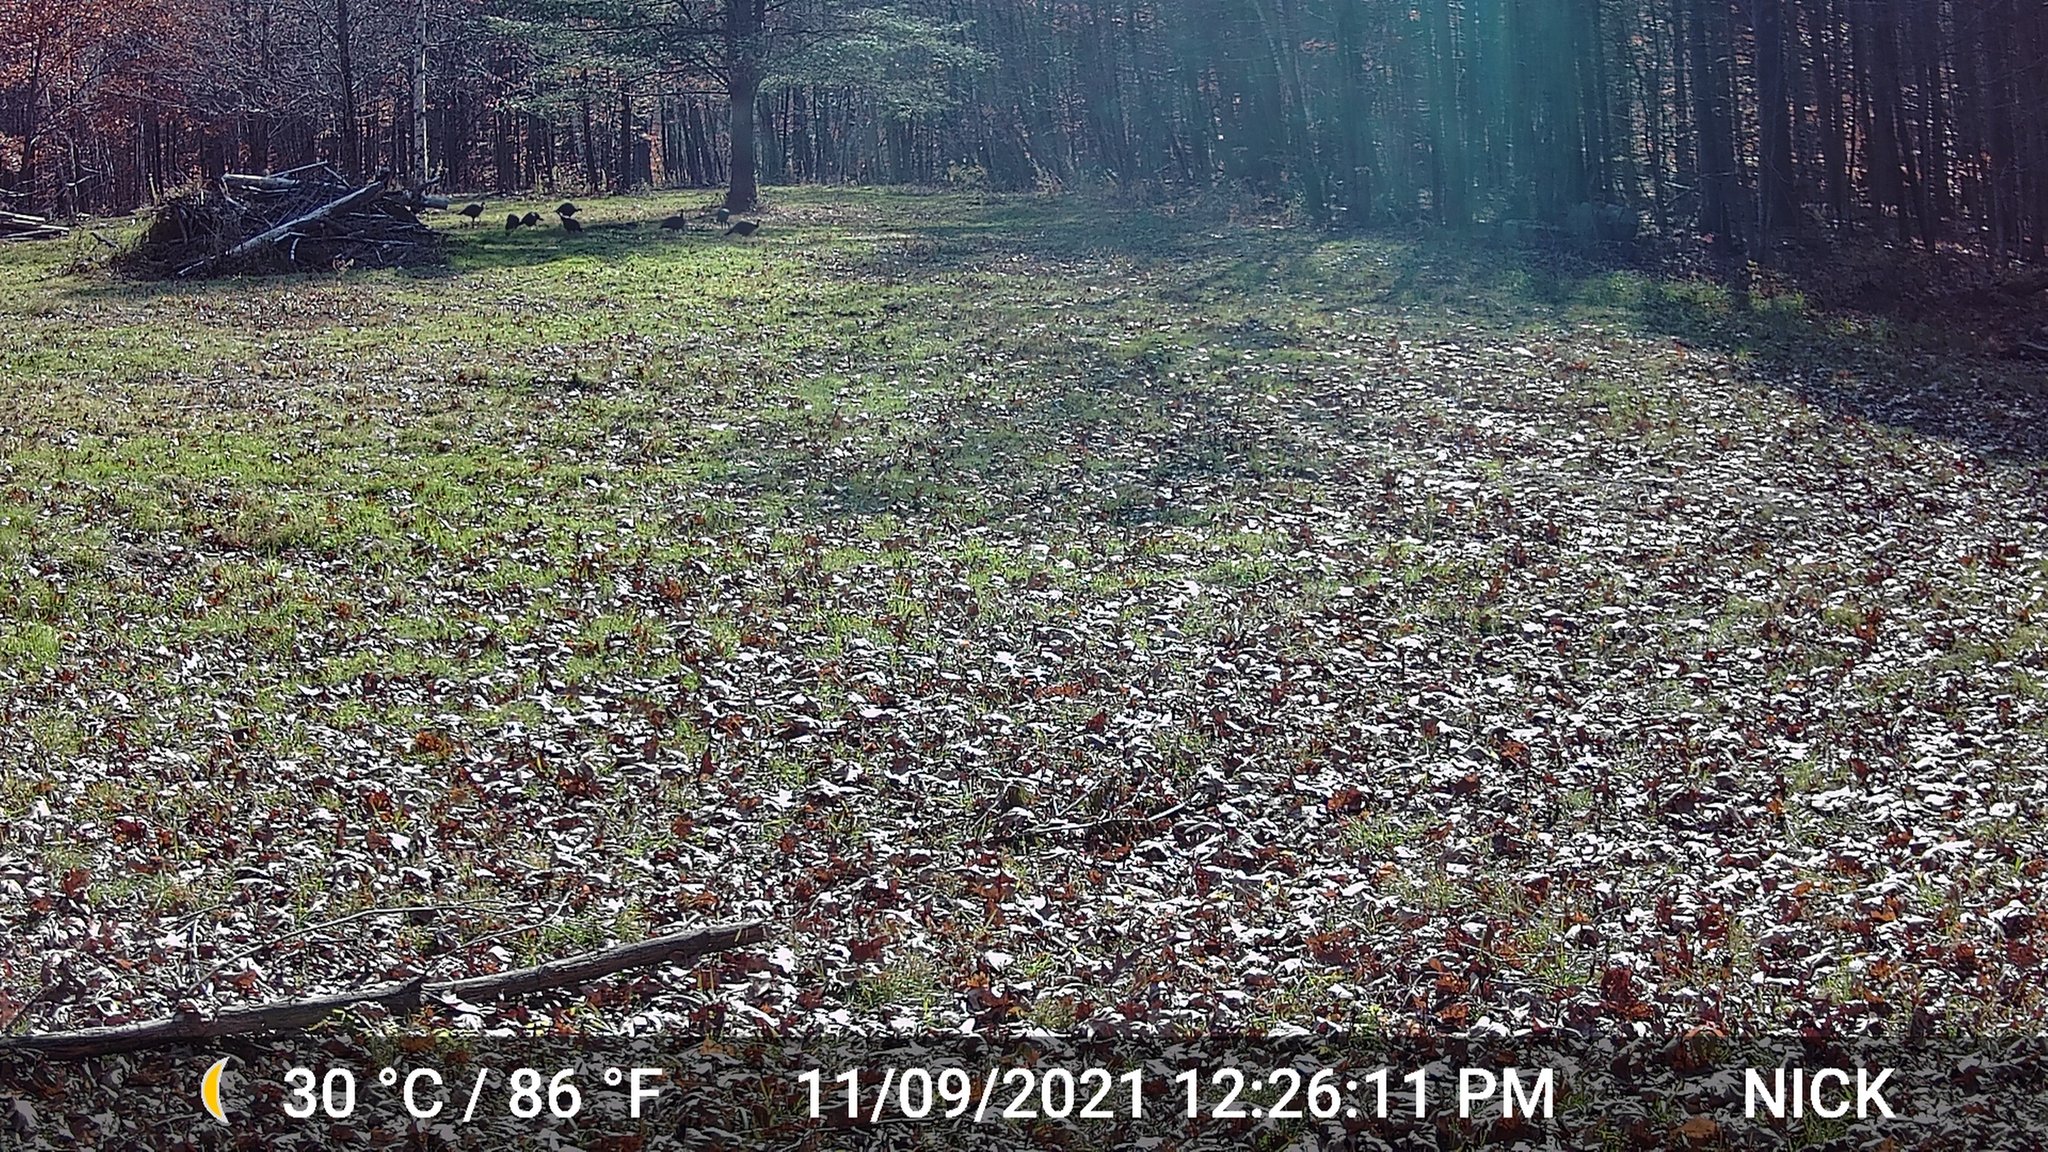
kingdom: Animalia
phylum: Chordata
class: Aves
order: Galliformes
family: Phasianidae
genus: Meleagris
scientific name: Meleagris gallopavo
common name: Wild turkey
